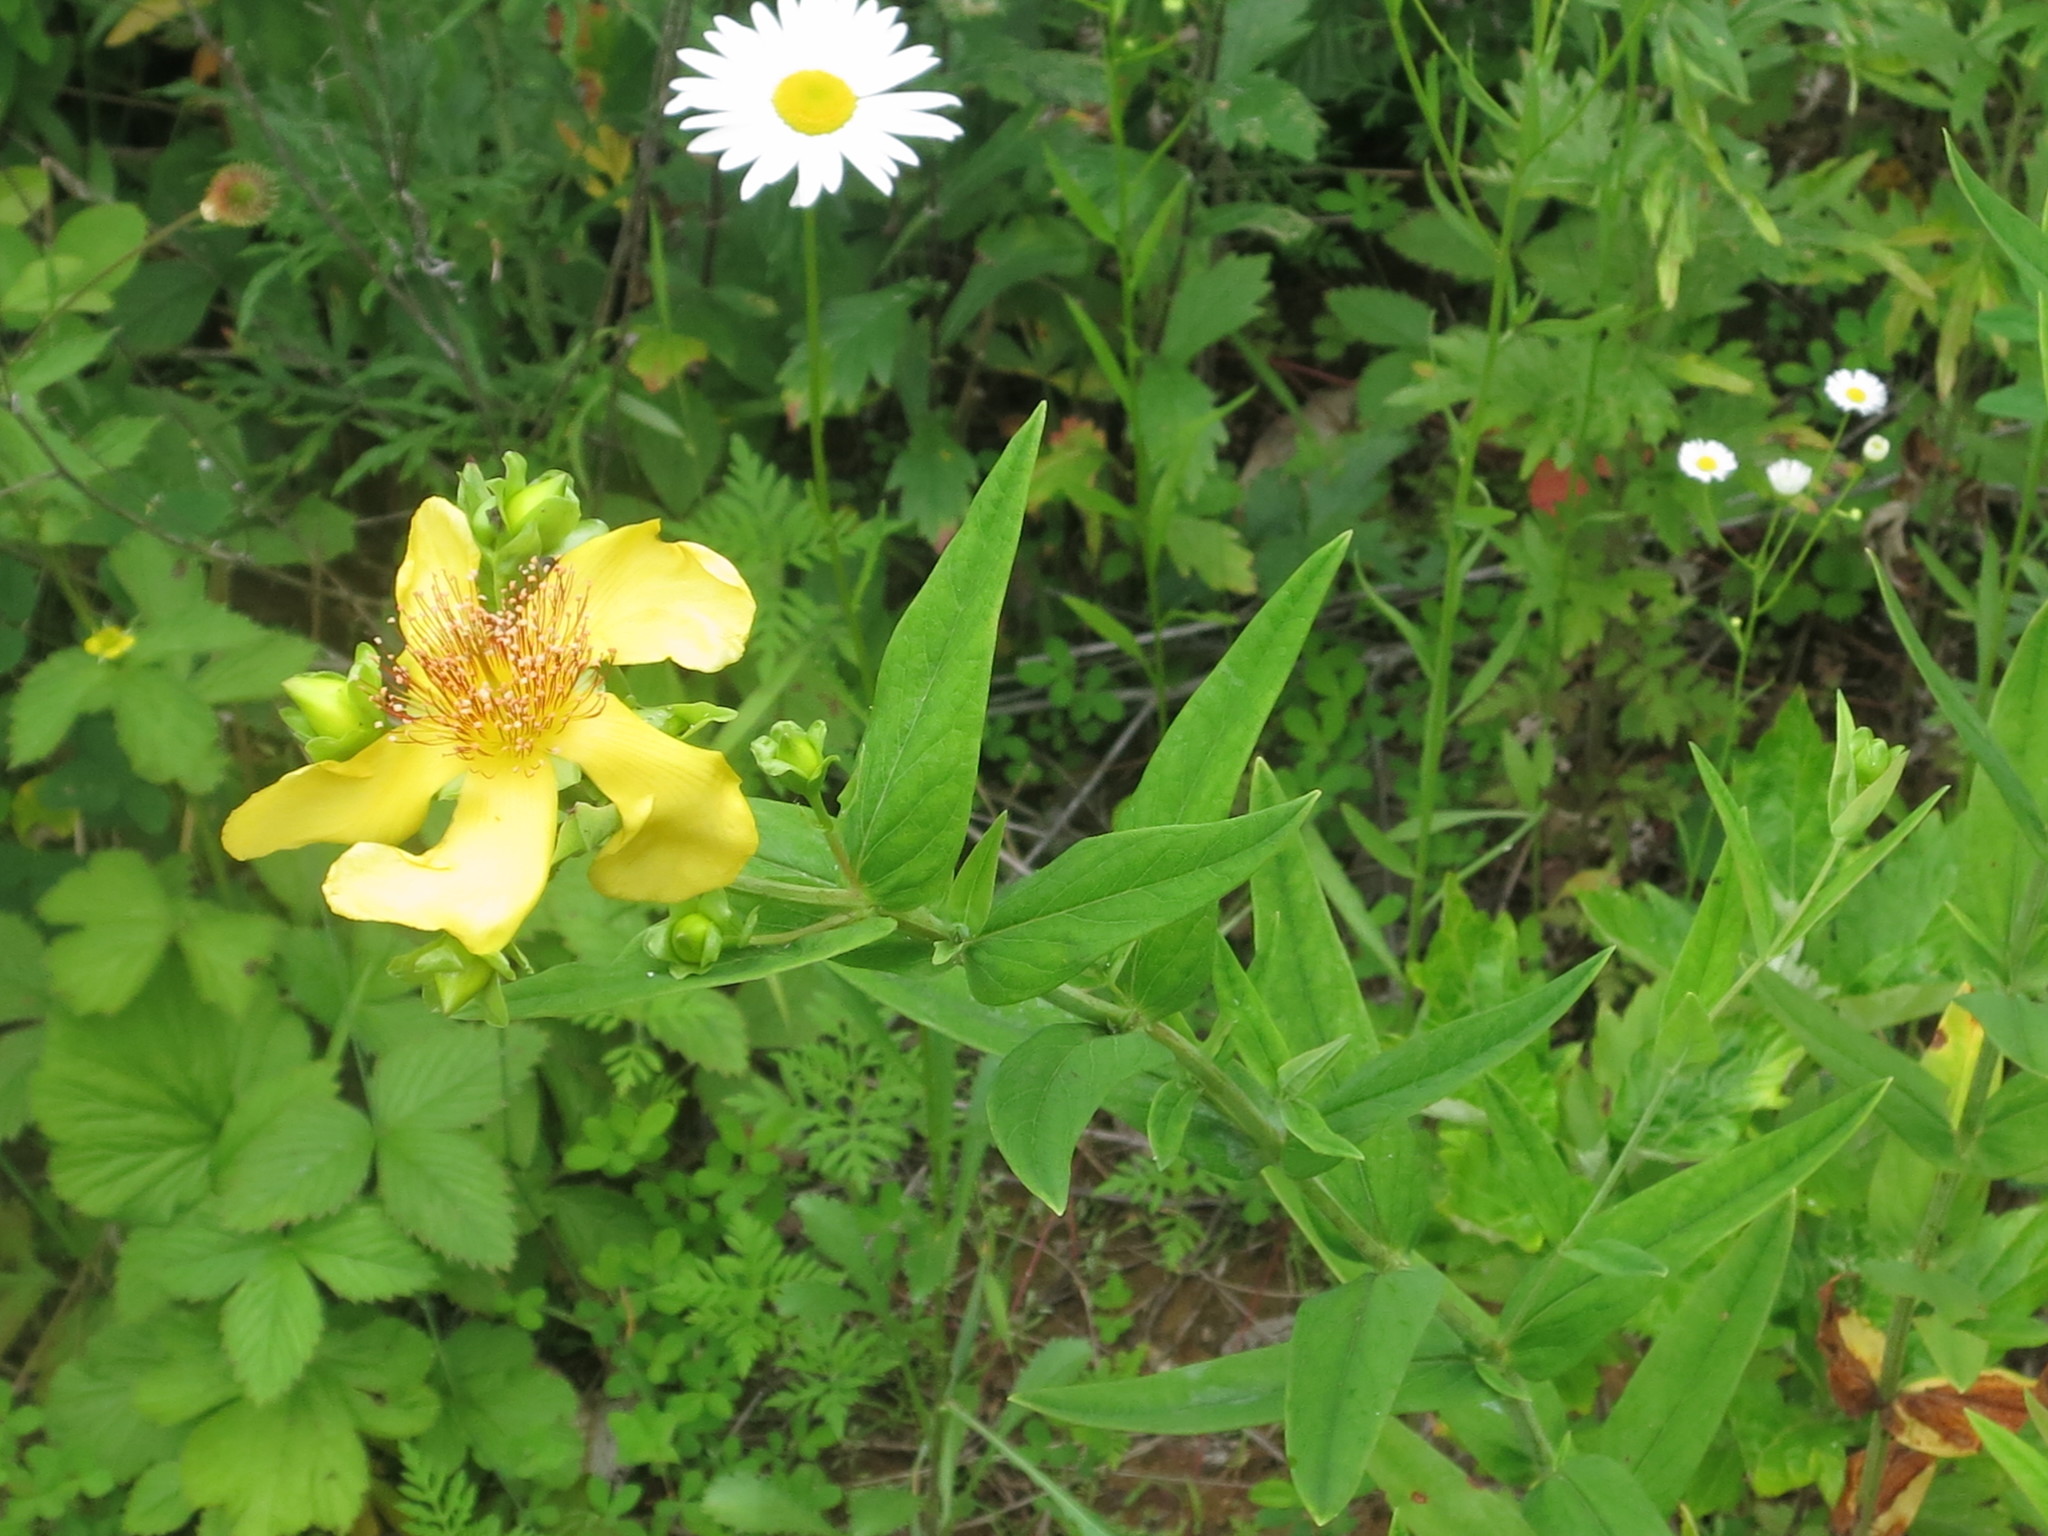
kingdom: Plantae
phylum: Tracheophyta
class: Magnoliopsida
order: Malpighiales
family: Hypericaceae
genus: Hypericum
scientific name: Hypericum ascyron
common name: Giant st. john's-wort
